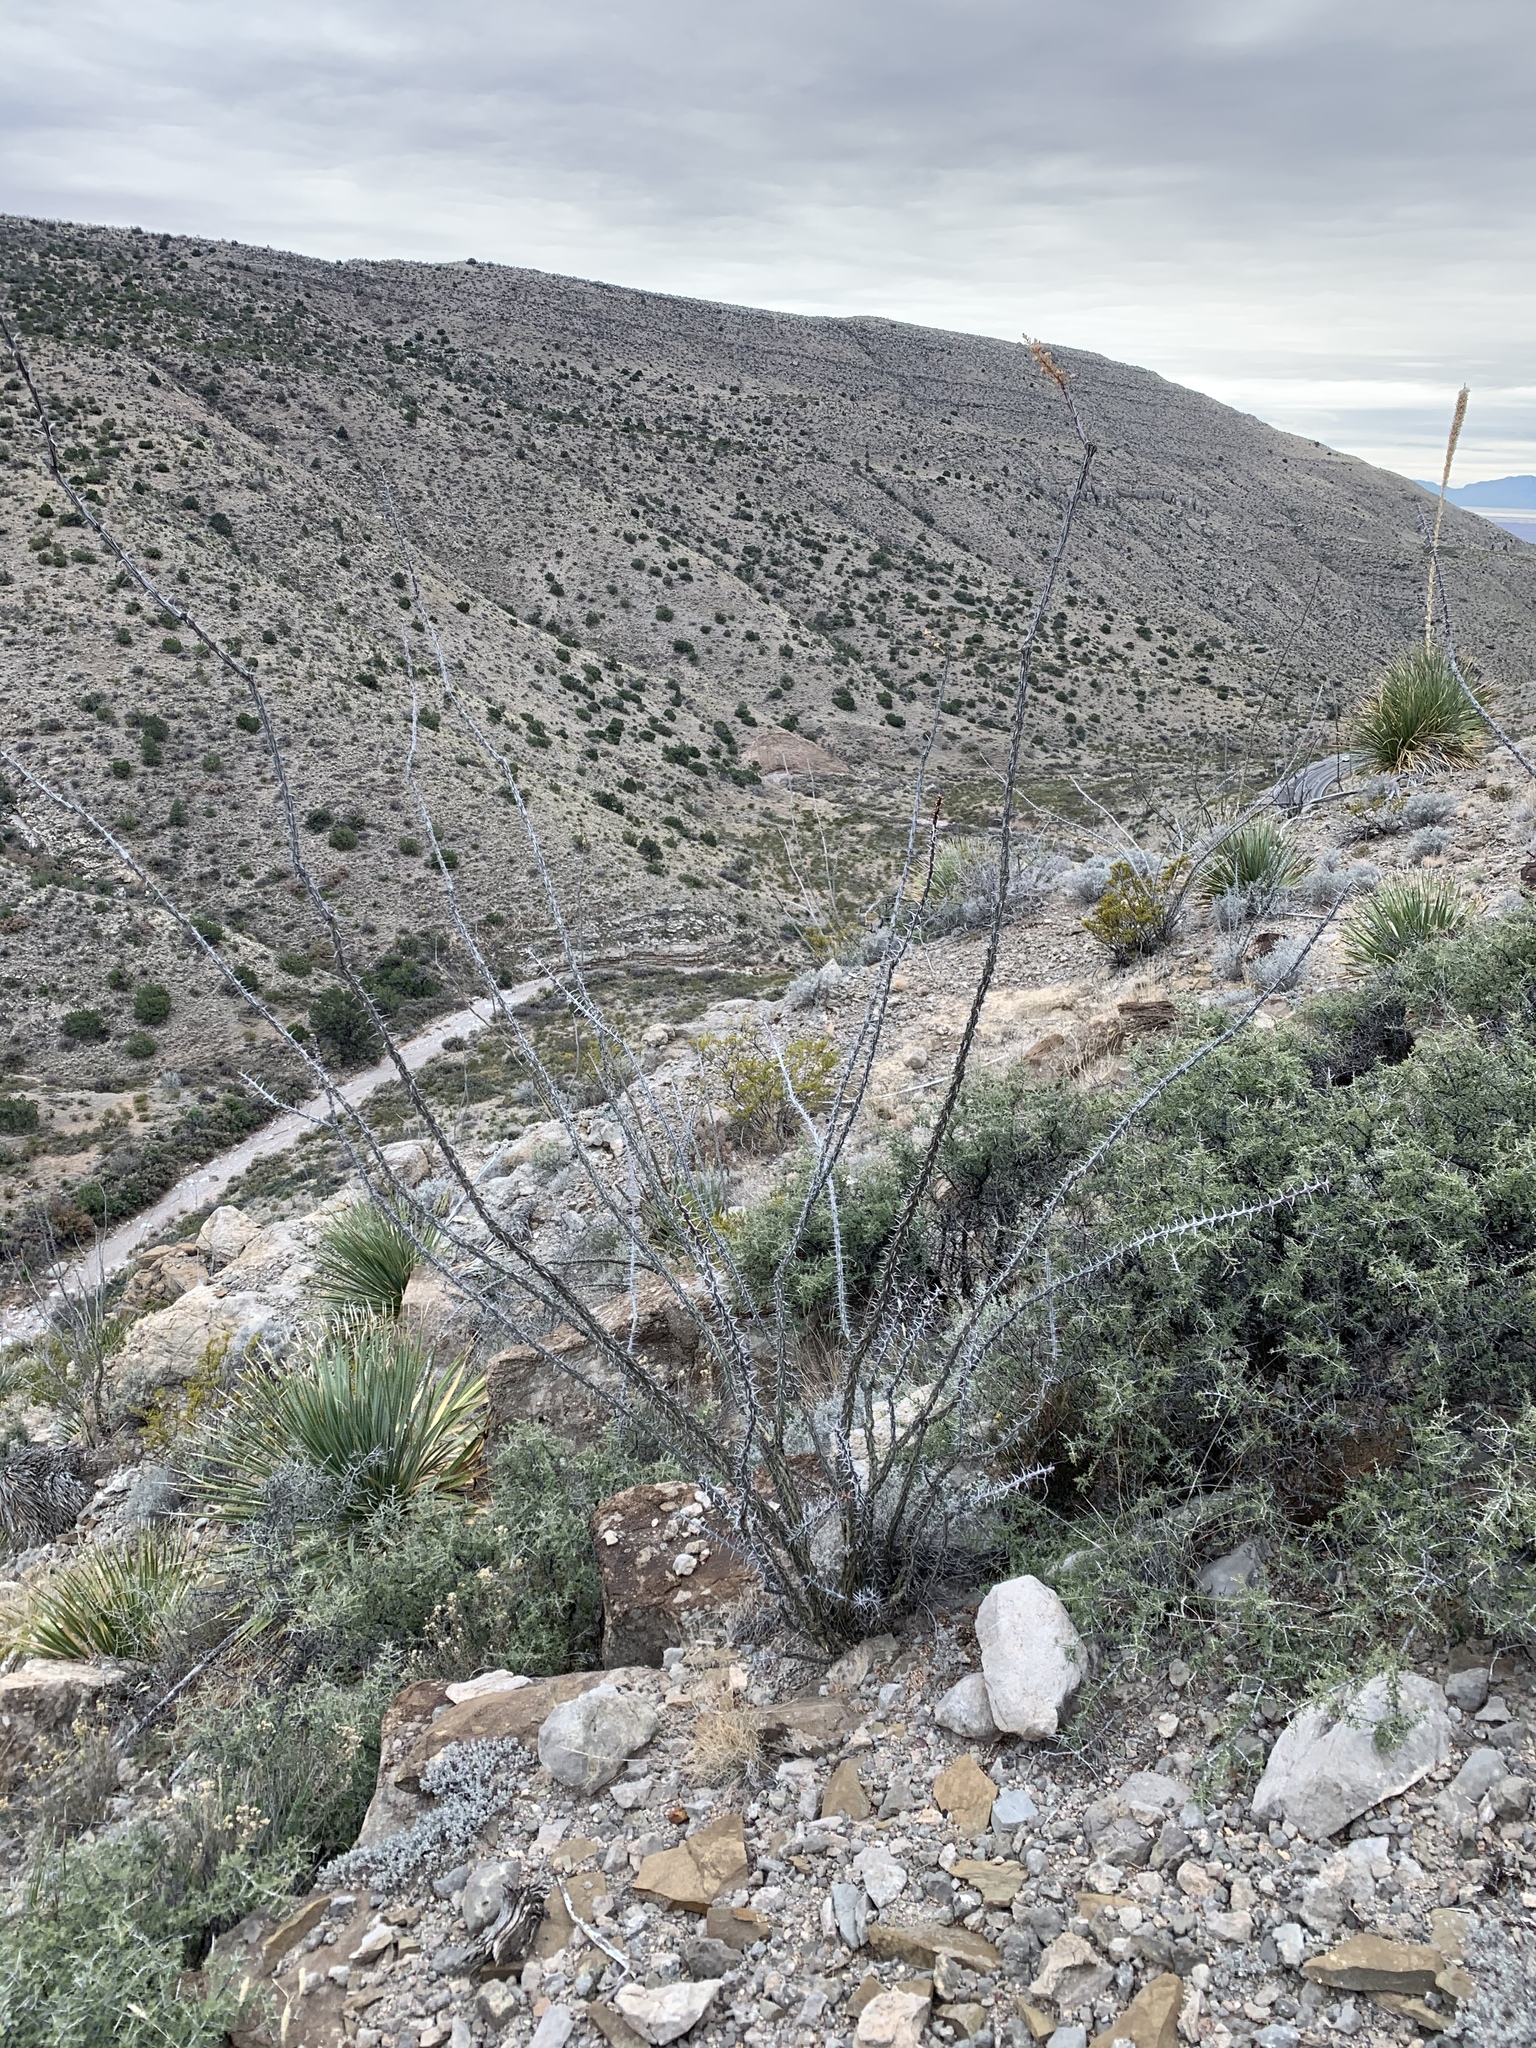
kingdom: Plantae
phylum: Tracheophyta
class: Magnoliopsida
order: Ericales
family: Fouquieriaceae
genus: Fouquieria
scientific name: Fouquieria splendens
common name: Vine-cactus
